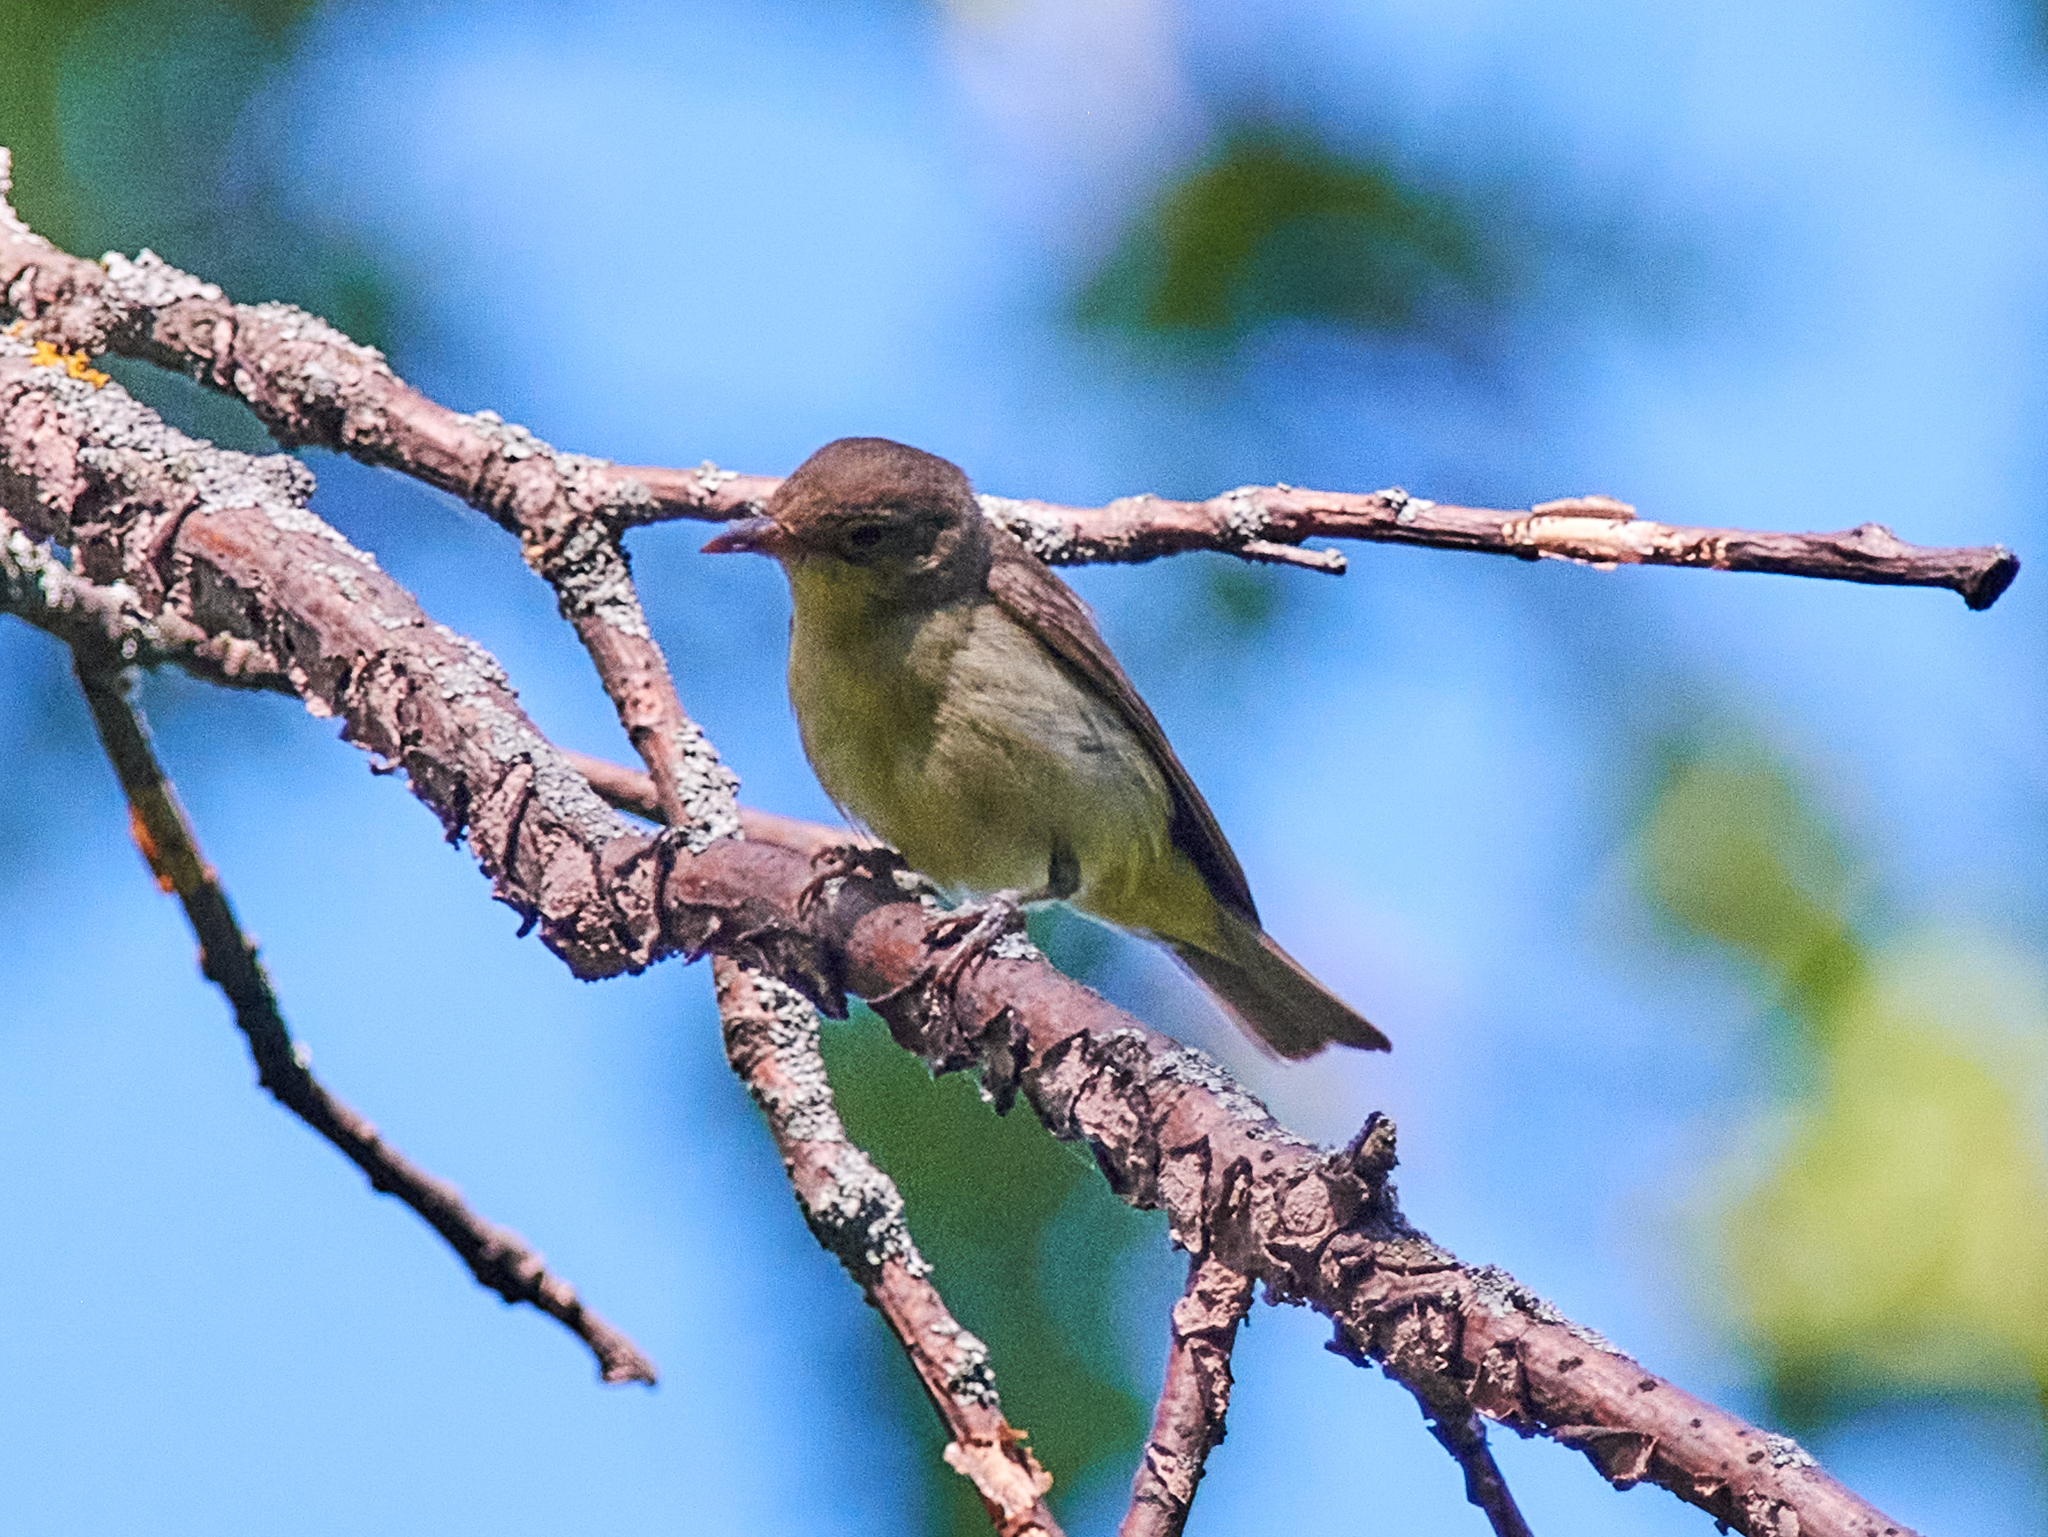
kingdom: Animalia
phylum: Chordata
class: Aves
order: Passeriformes
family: Sylviidae
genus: Sylvia
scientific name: Sylvia borin
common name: Garden warbler
